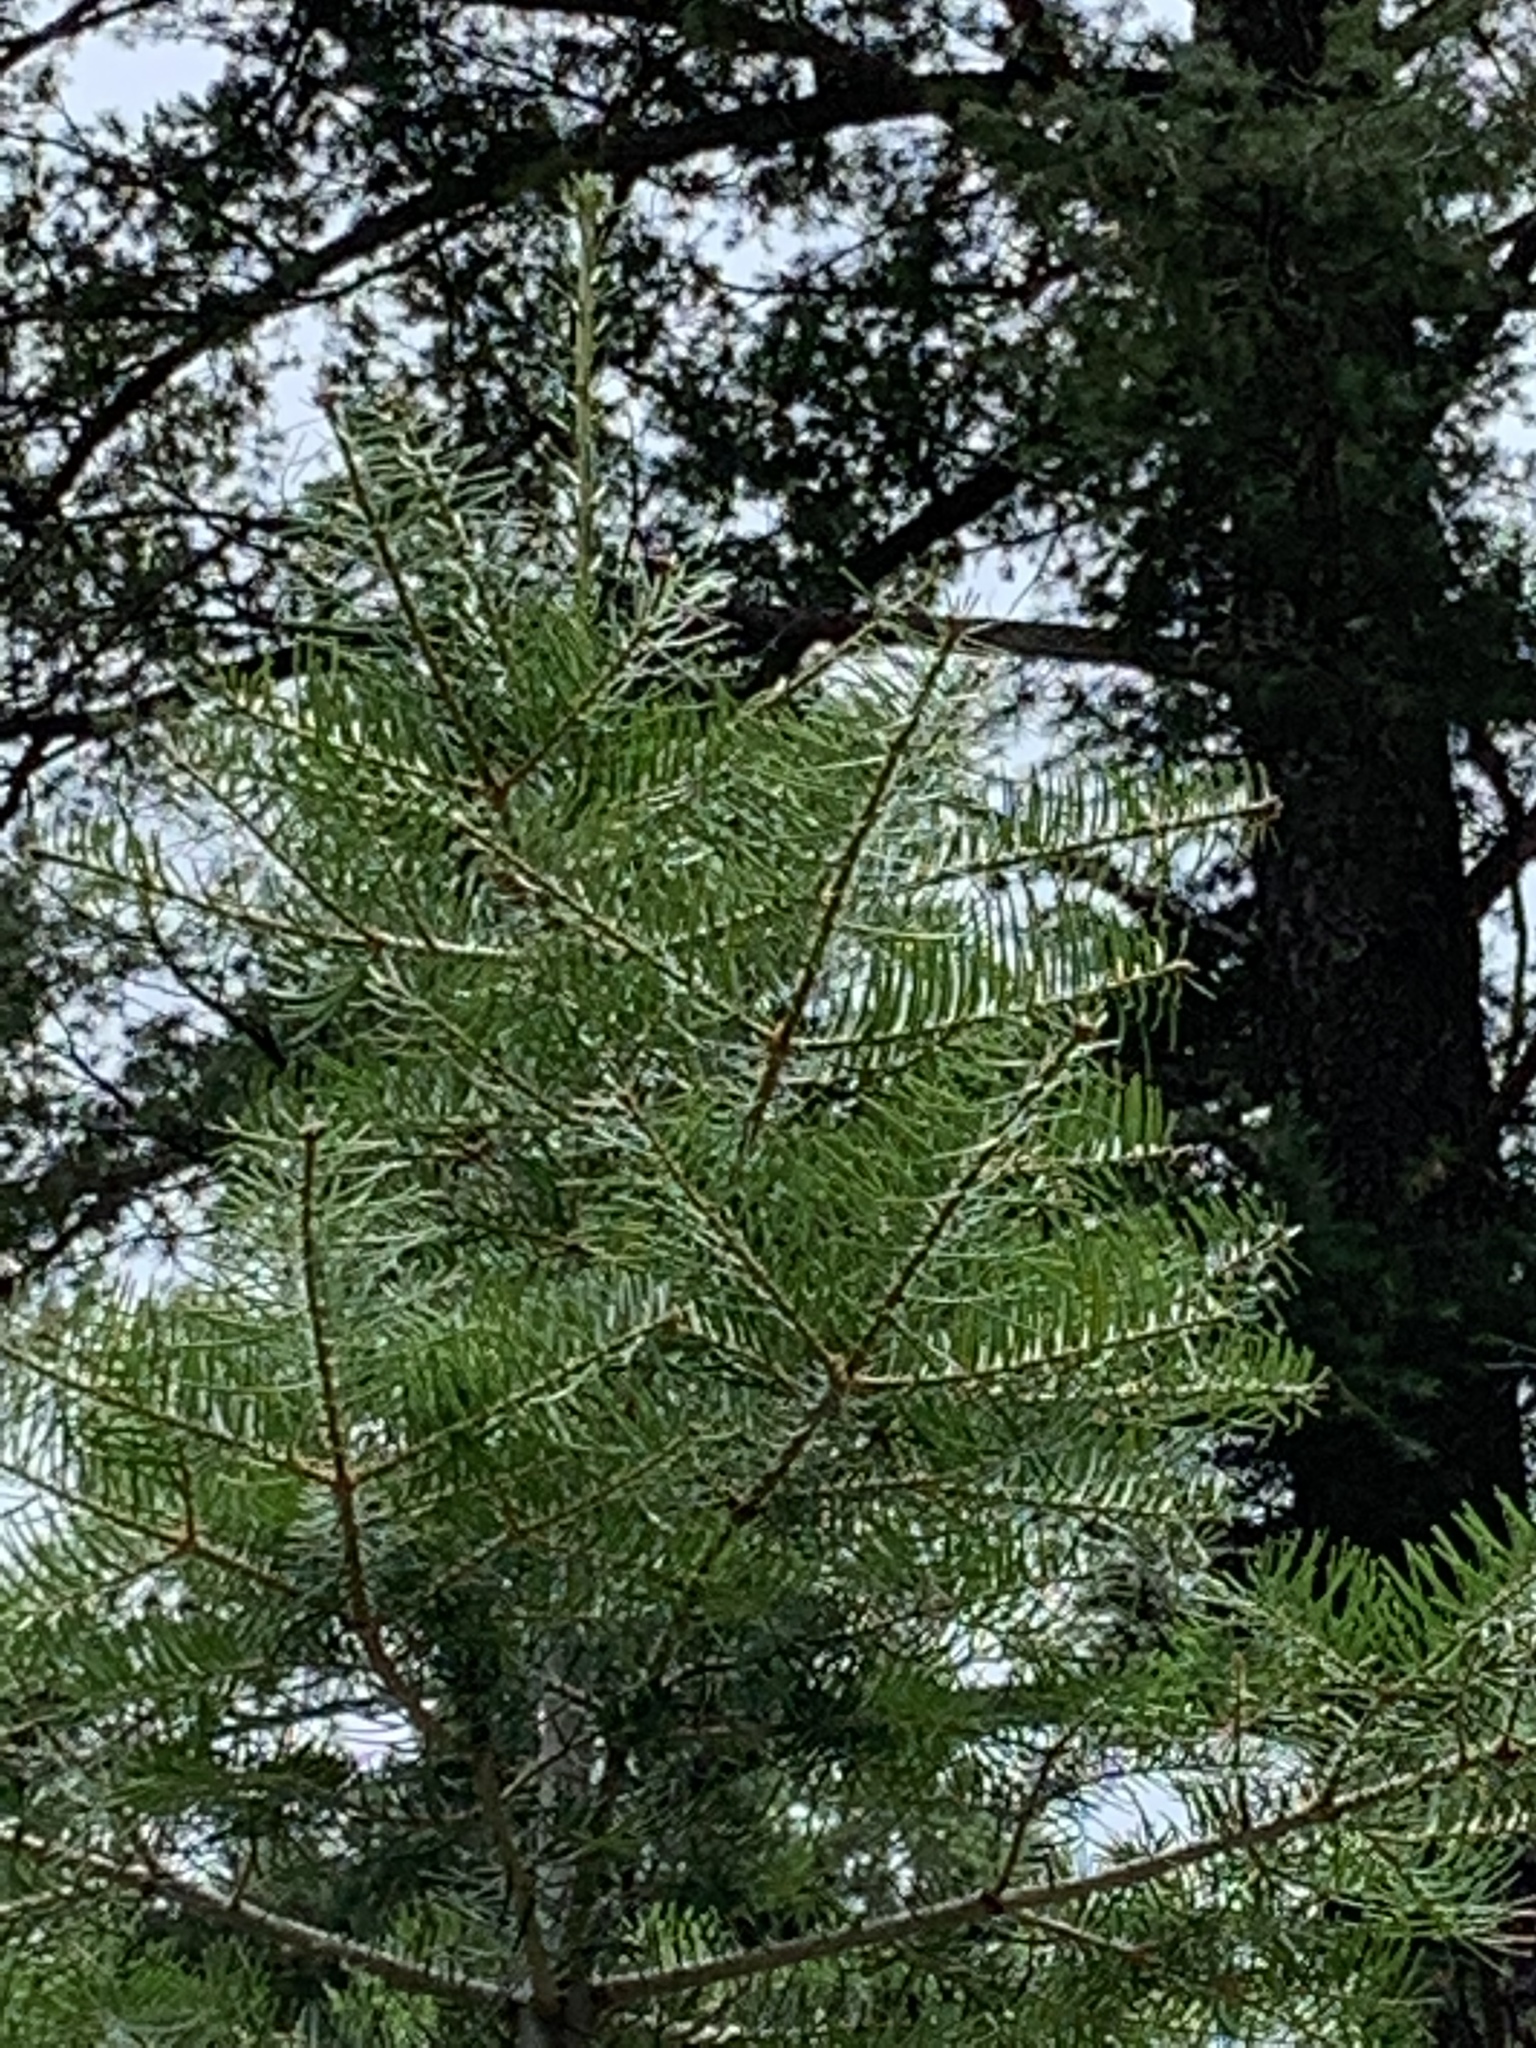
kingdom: Plantae
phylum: Tracheophyta
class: Pinopsida
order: Pinales
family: Pinaceae
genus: Abies
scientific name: Abies concolor
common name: Colorado fir
